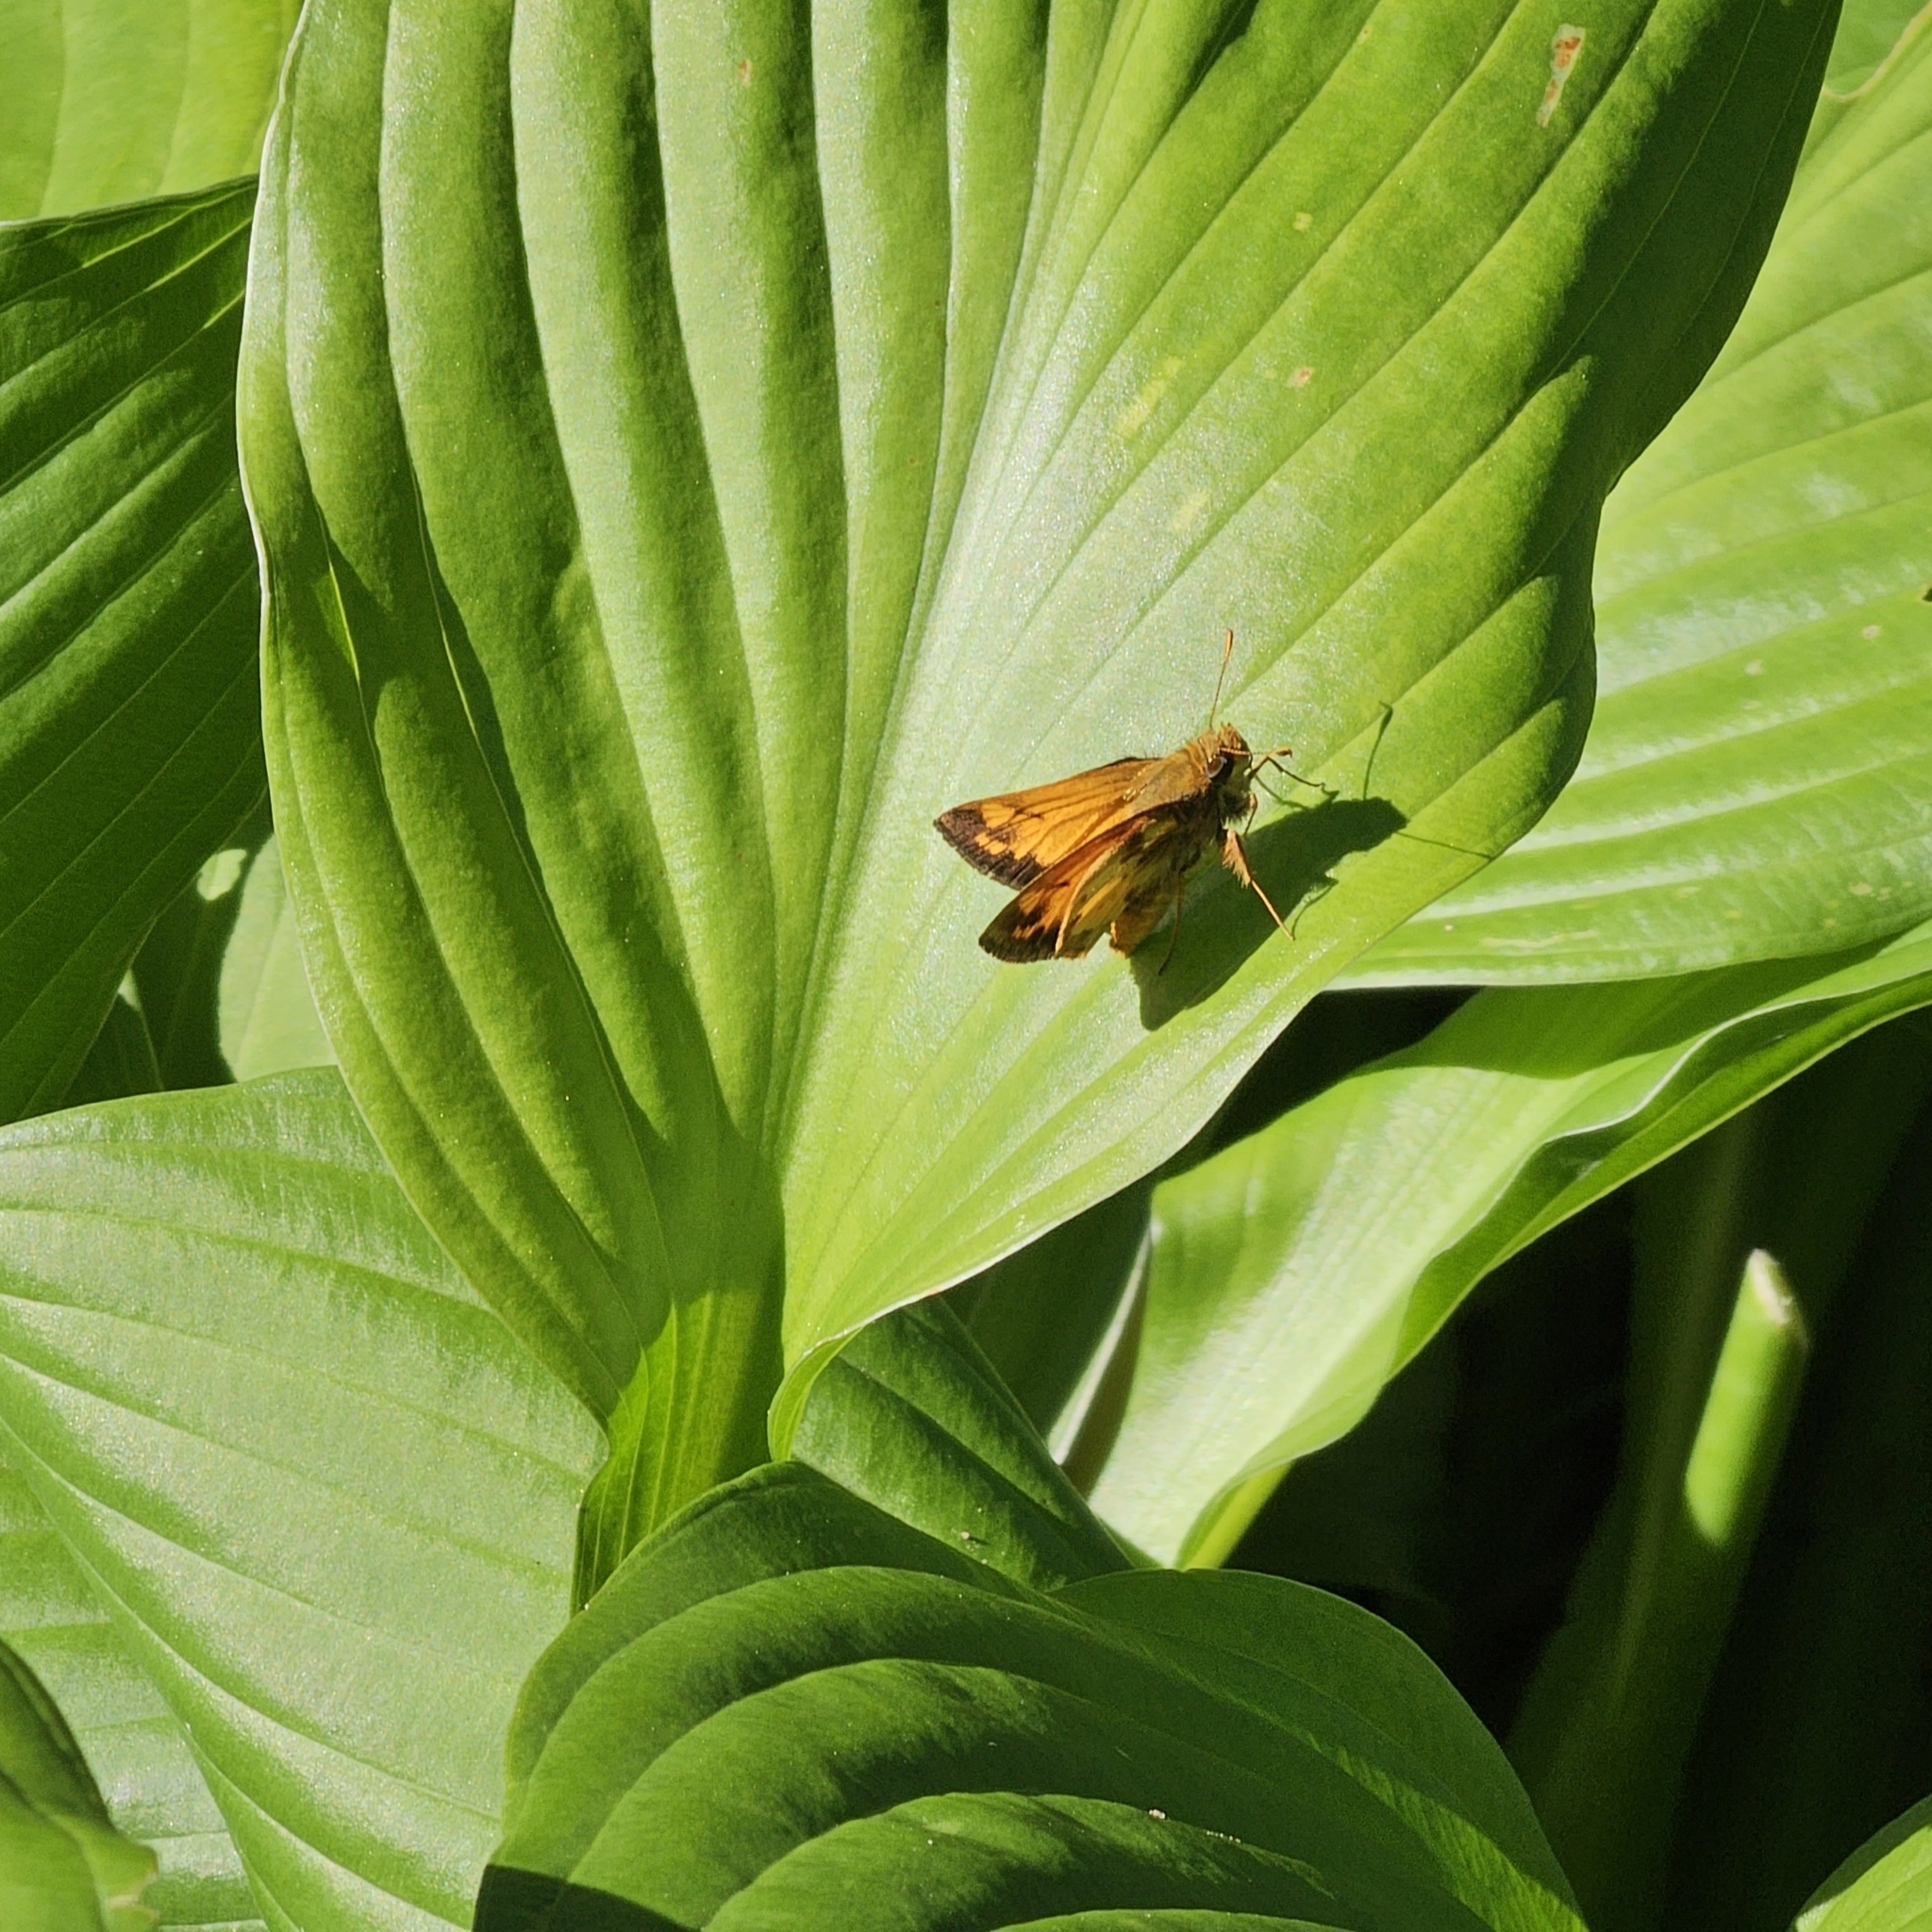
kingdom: Animalia
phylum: Arthropoda
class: Insecta
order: Lepidoptera
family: Hesperiidae
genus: Lon
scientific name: Lon zabulon
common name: Zabulon skipper
